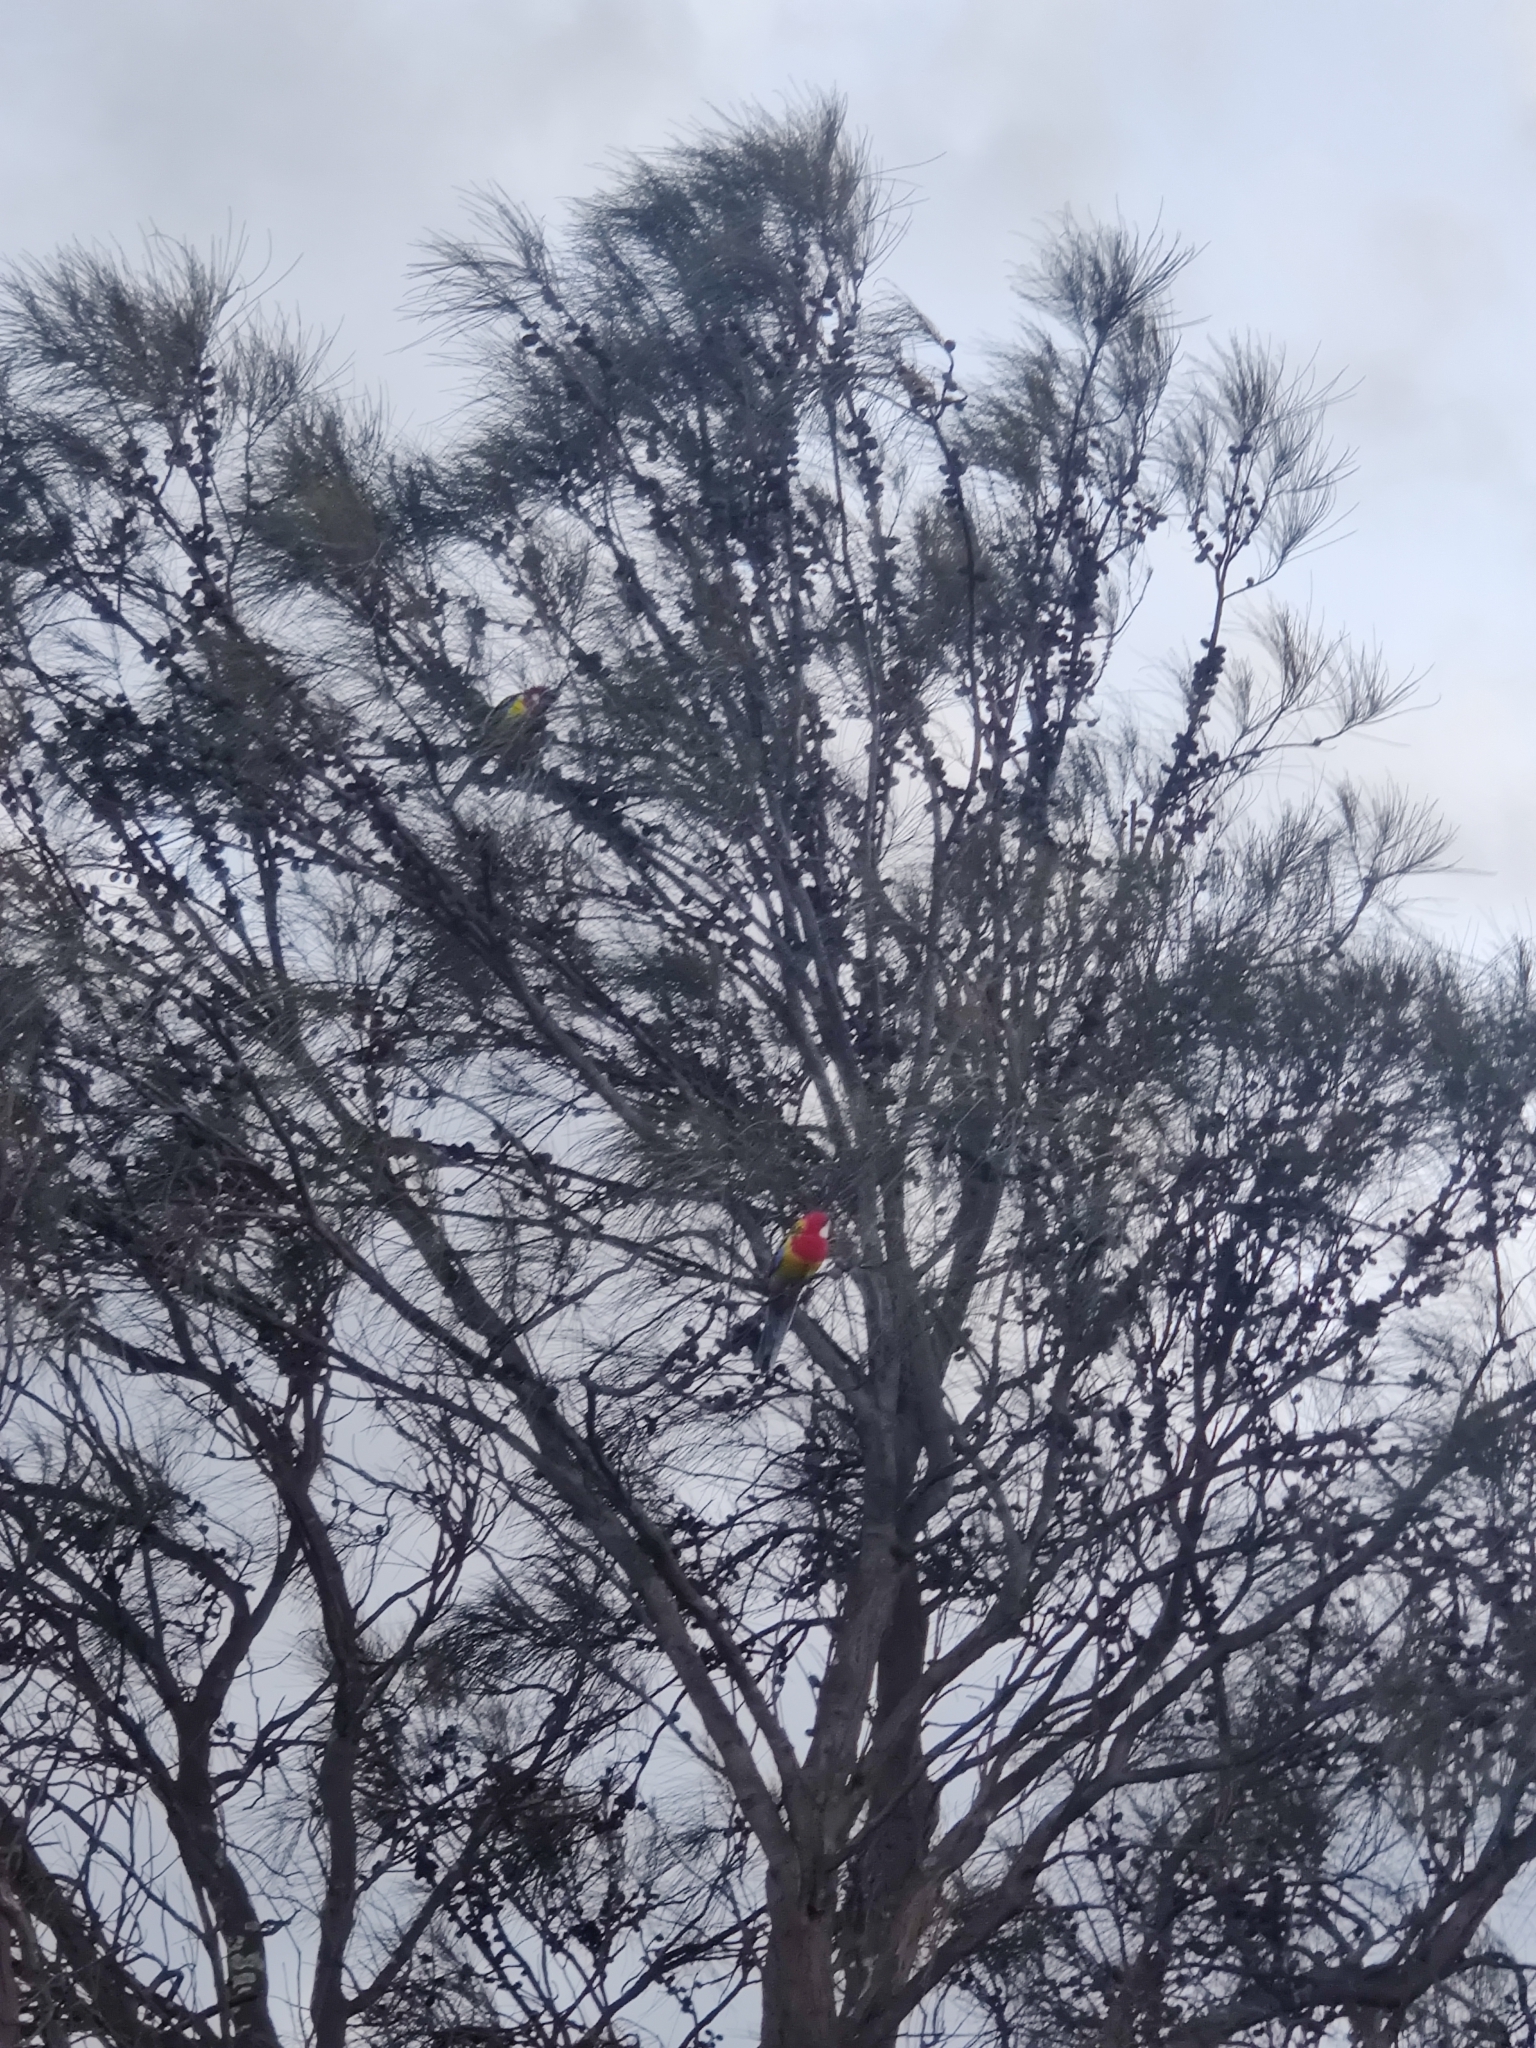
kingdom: Animalia
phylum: Chordata
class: Aves
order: Psittaciformes
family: Psittacidae
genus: Platycercus
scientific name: Platycercus eximius
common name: Eastern rosella
